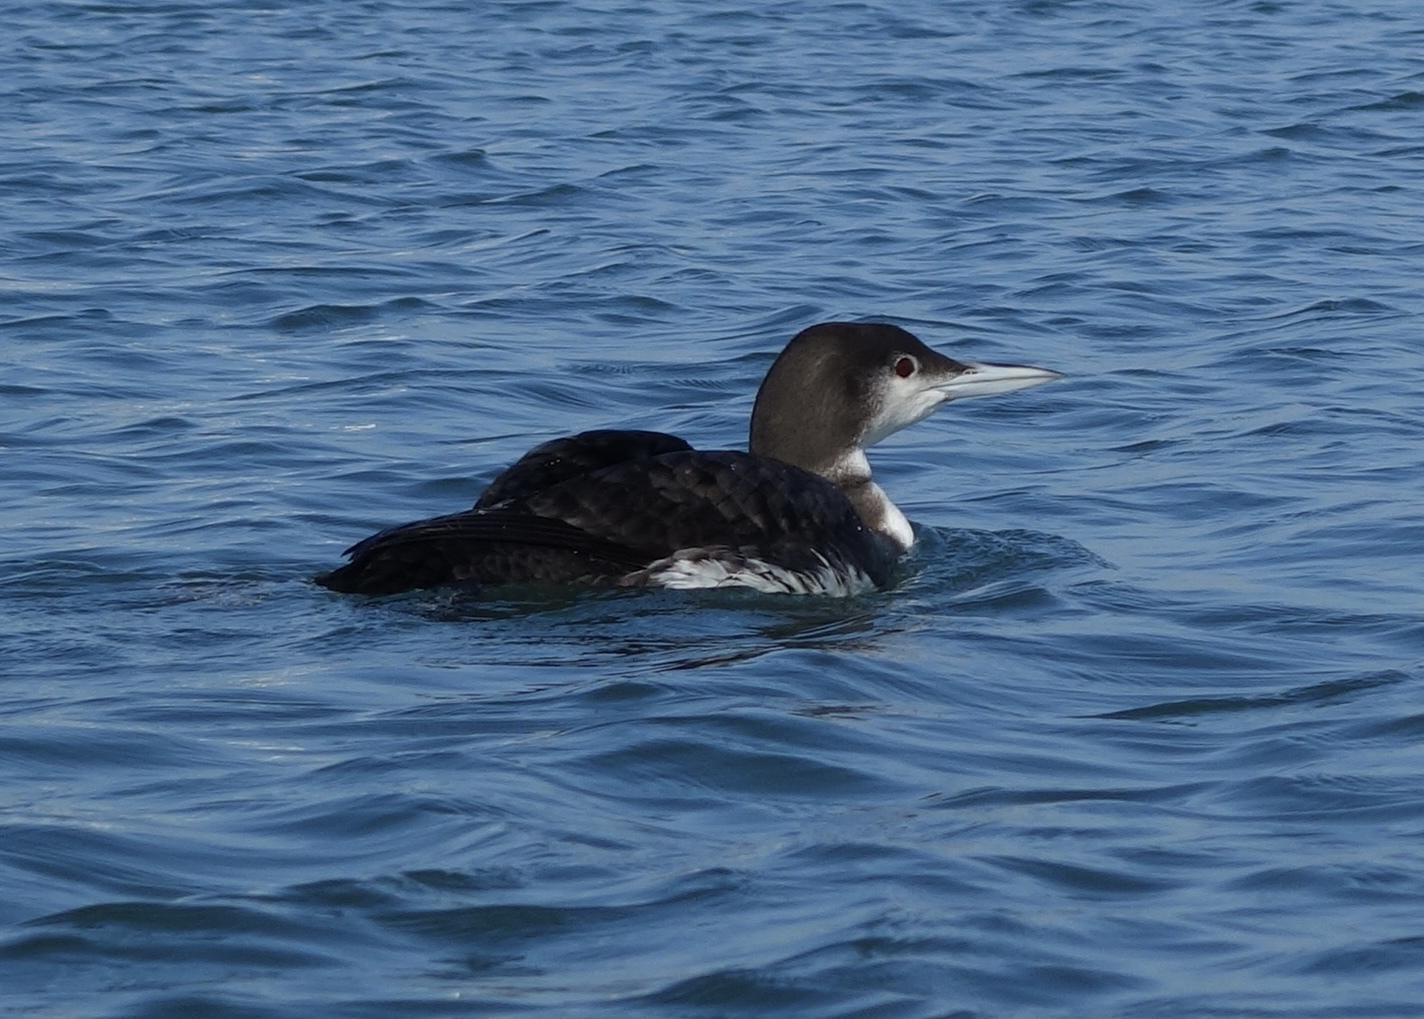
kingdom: Animalia
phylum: Chordata
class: Aves
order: Gaviiformes
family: Gaviidae
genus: Gavia
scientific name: Gavia immer
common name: Common loon
